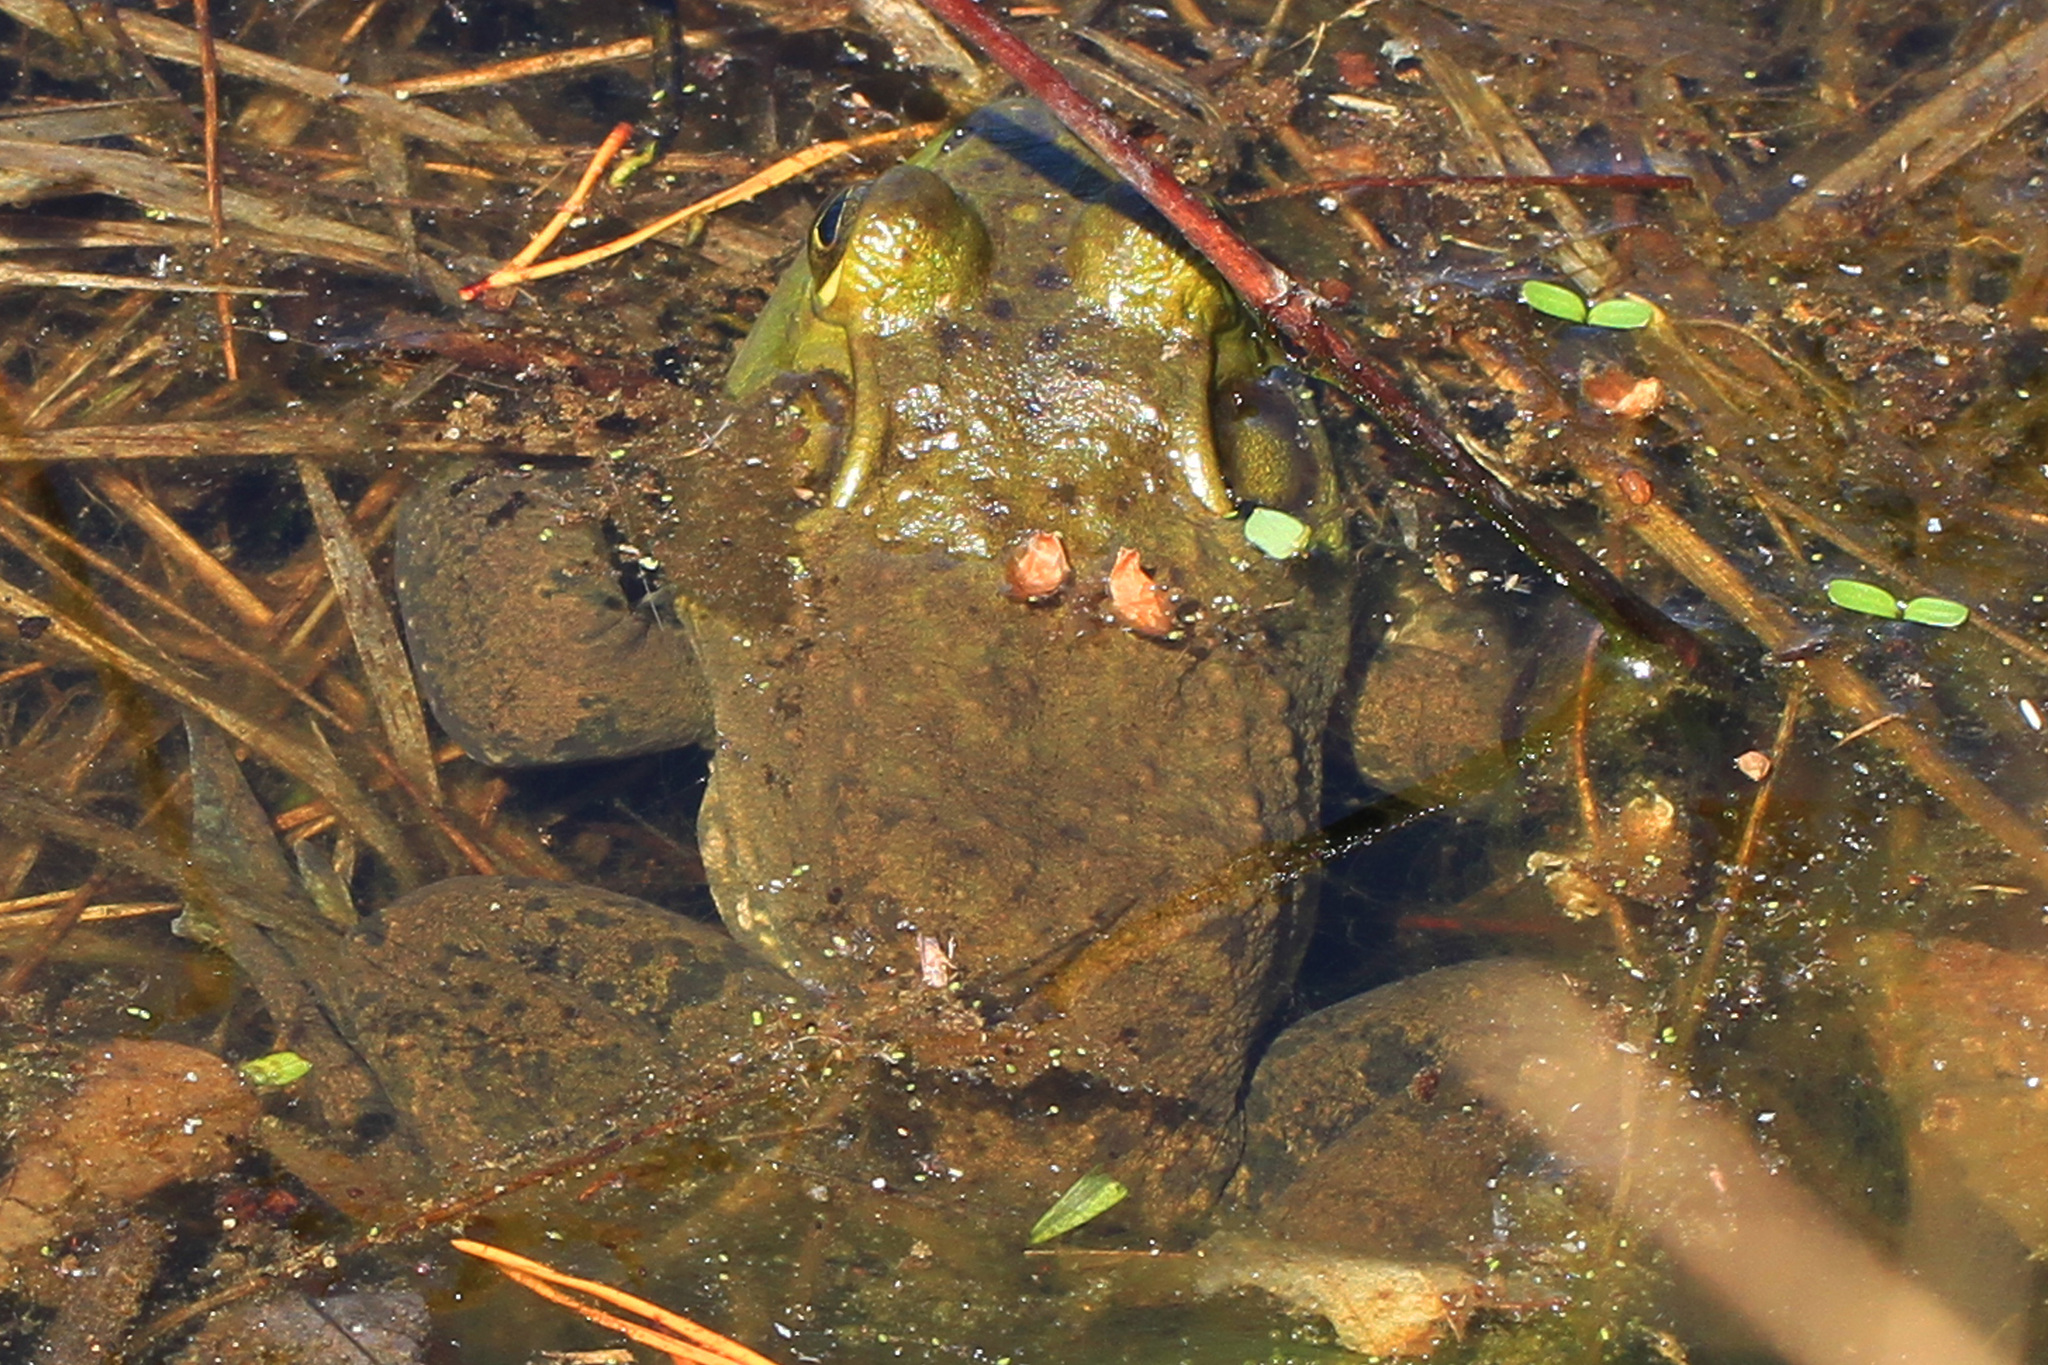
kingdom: Animalia
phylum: Chordata
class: Amphibia
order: Anura
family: Ranidae
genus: Lithobates
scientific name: Lithobates catesbeianus
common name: American bullfrog
